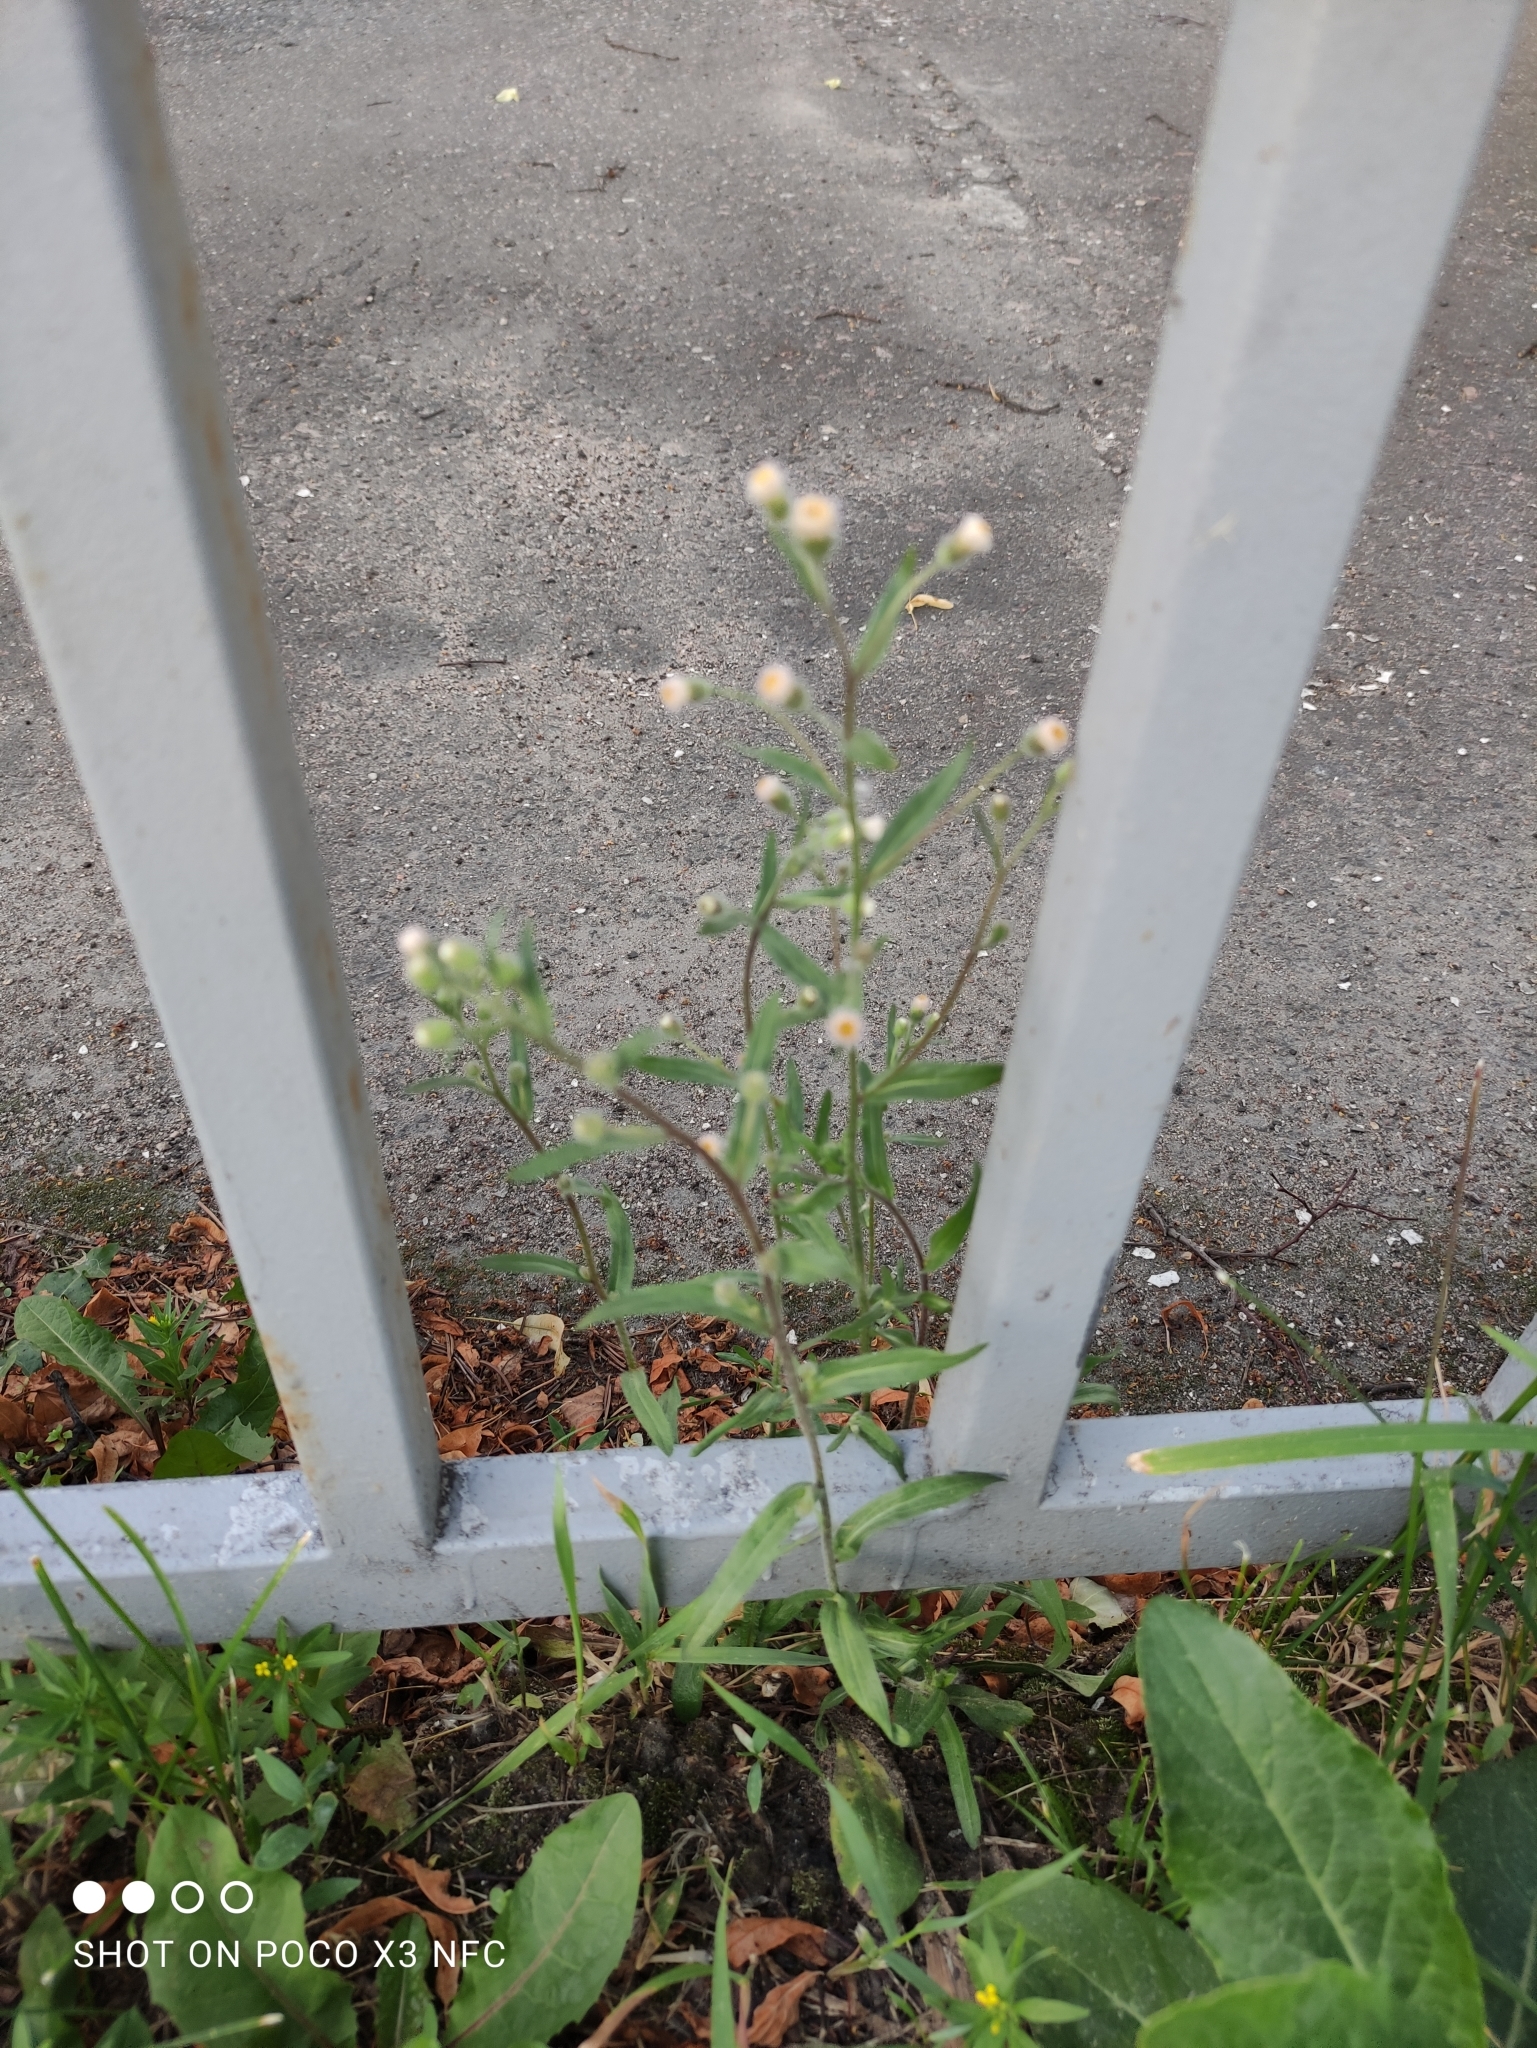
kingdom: Plantae
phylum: Tracheophyta
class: Magnoliopsida
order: Asterales
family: Asteraceae
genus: Erigeron
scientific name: Erigeron acris
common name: Blue fleabane
